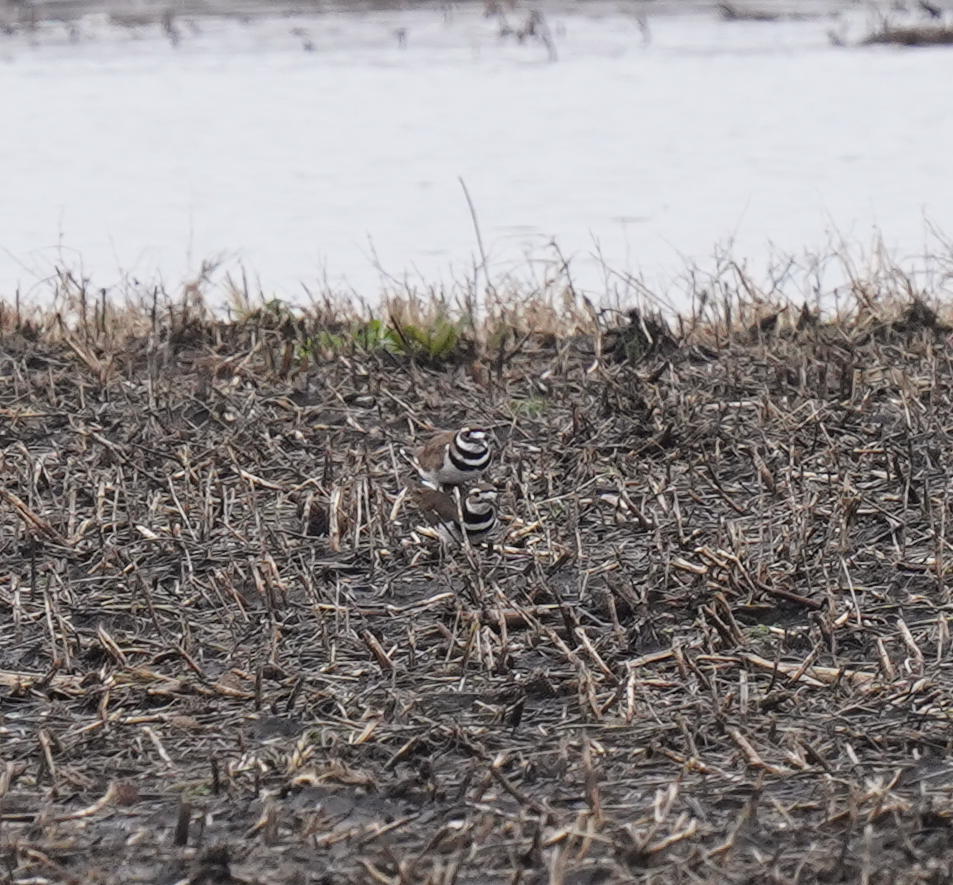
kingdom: Animalia
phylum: Chordata
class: Aves
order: Charadriiformes
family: Charadriidae
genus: Charadrius
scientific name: Charadrius vociferus
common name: Killdeer
